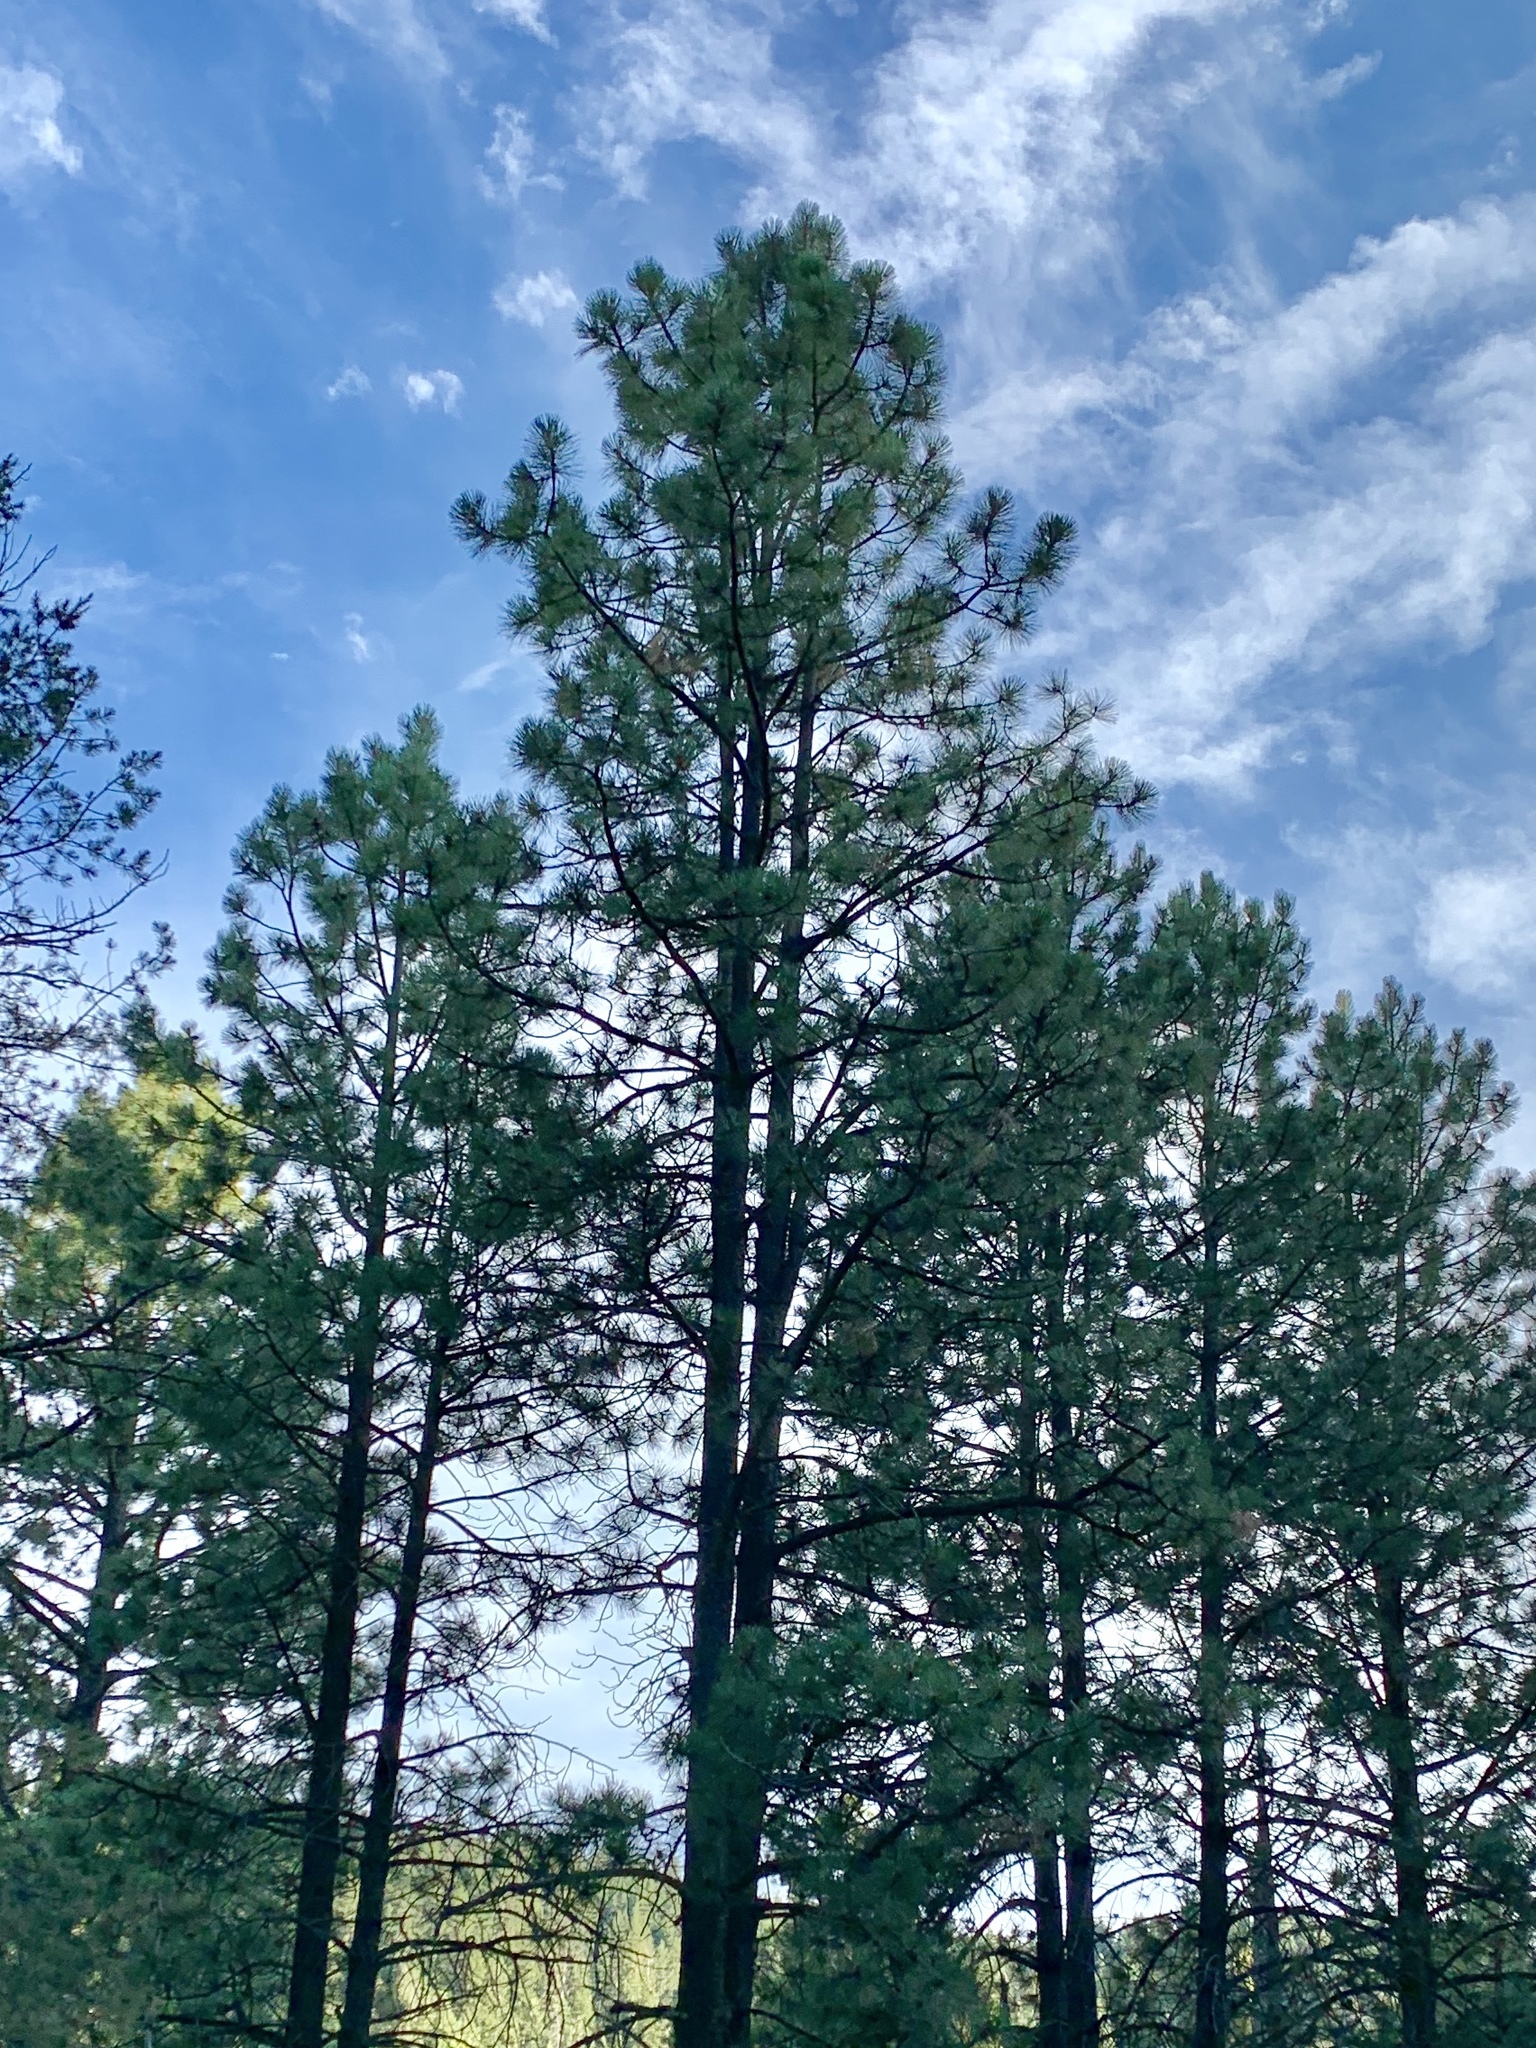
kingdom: Plantae
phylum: Tracheophyta
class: Pinopsida
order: Pinales
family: Pinaceae
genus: Pinus
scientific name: Pinus ponderosa
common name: Western yellow-pine
